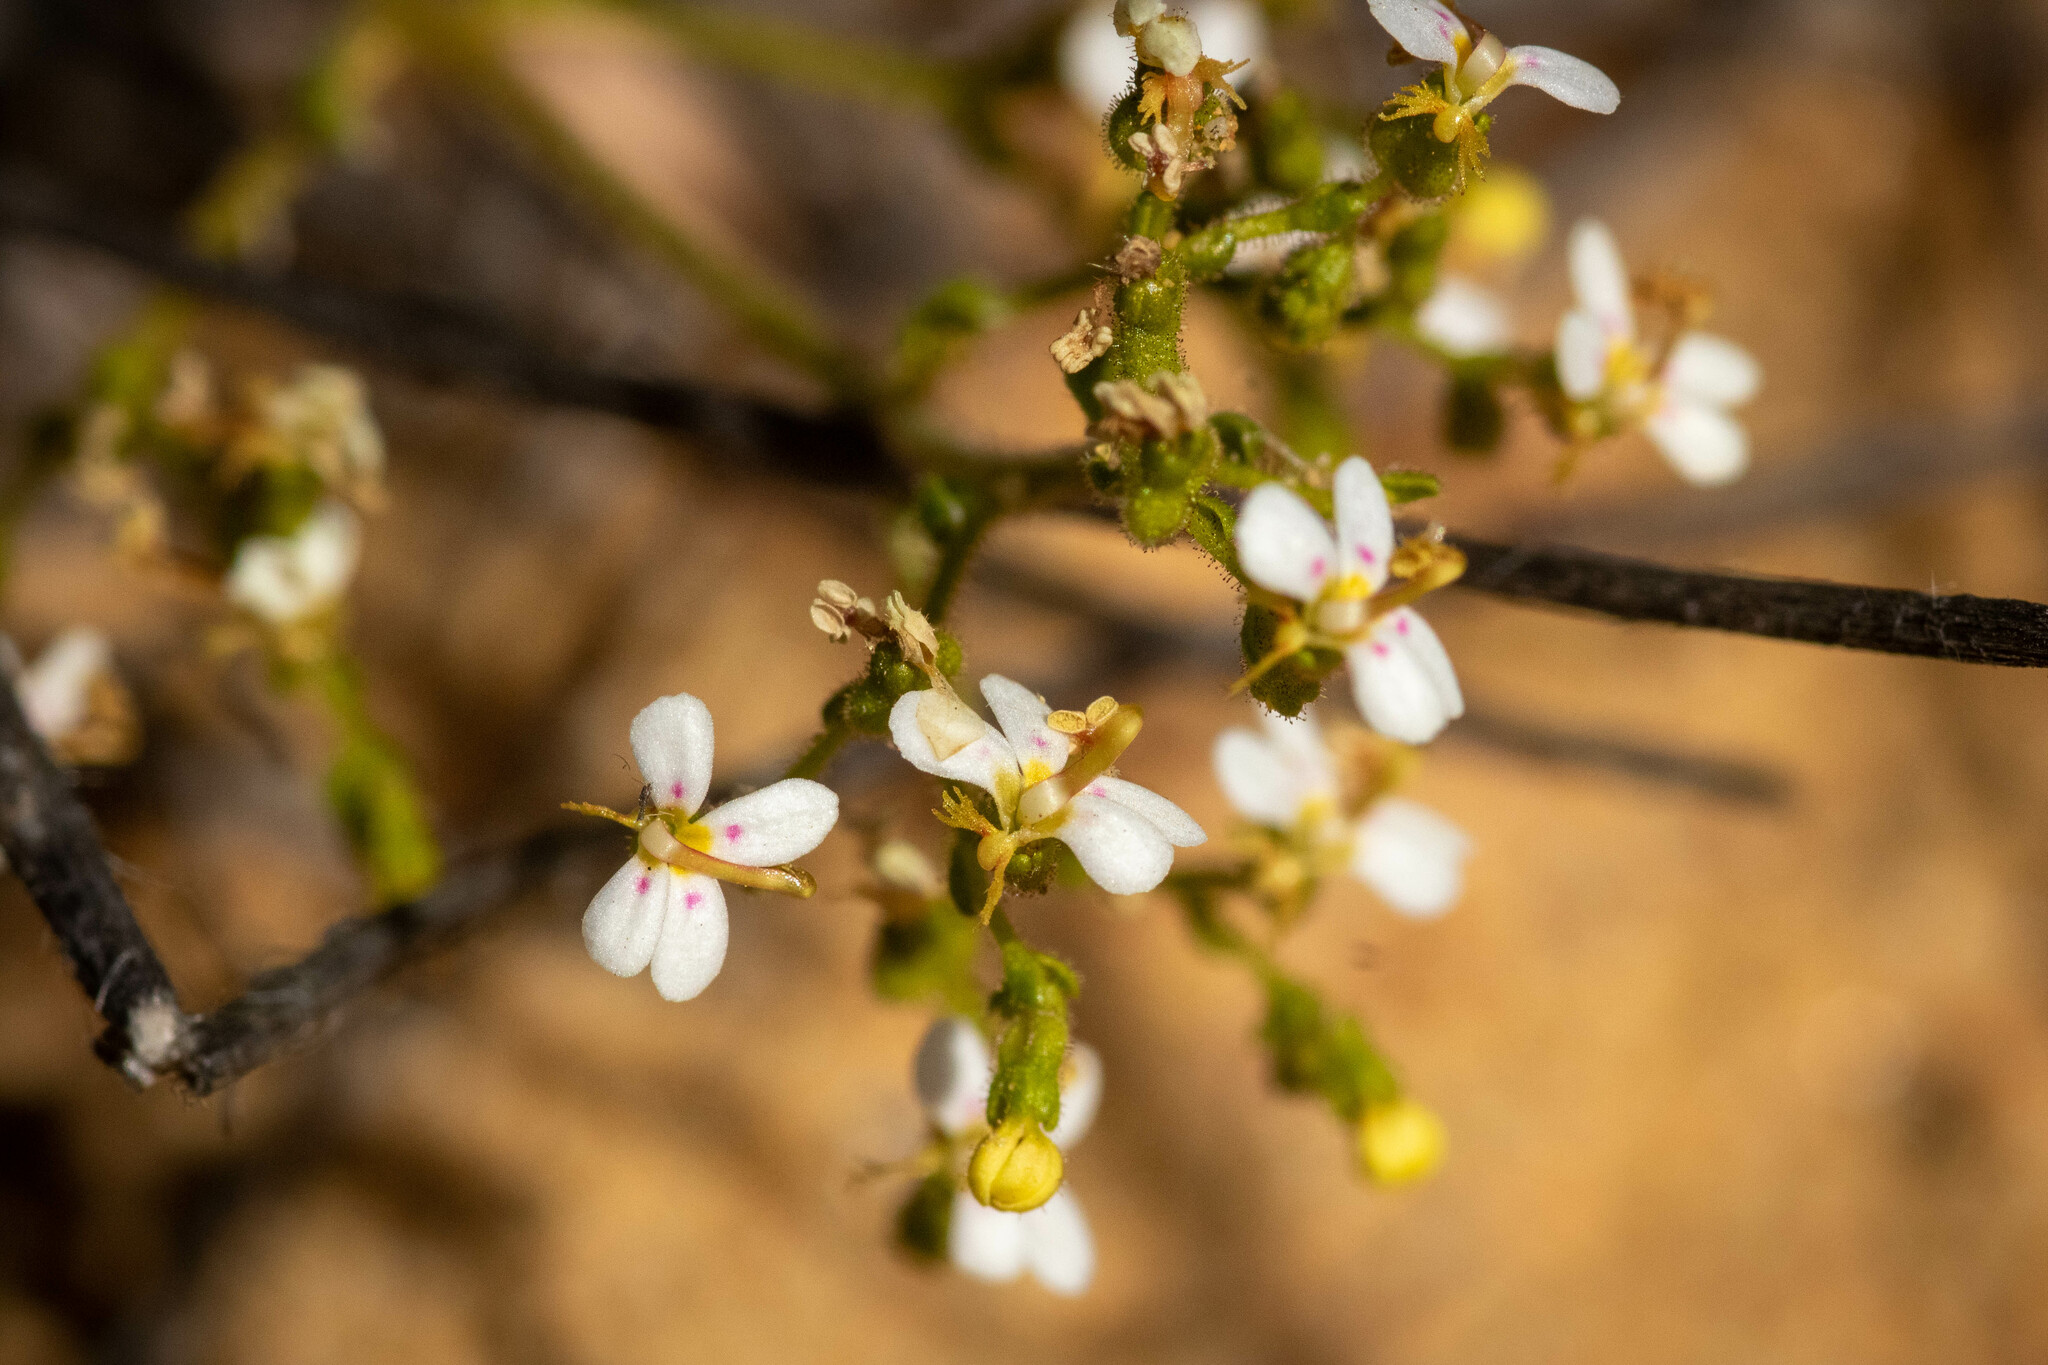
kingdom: Plantae
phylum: Tracheophyta
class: Magnoliopsida
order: Asterales
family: Stylidiaceae
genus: Stylidium
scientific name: Stylidium dispermum
